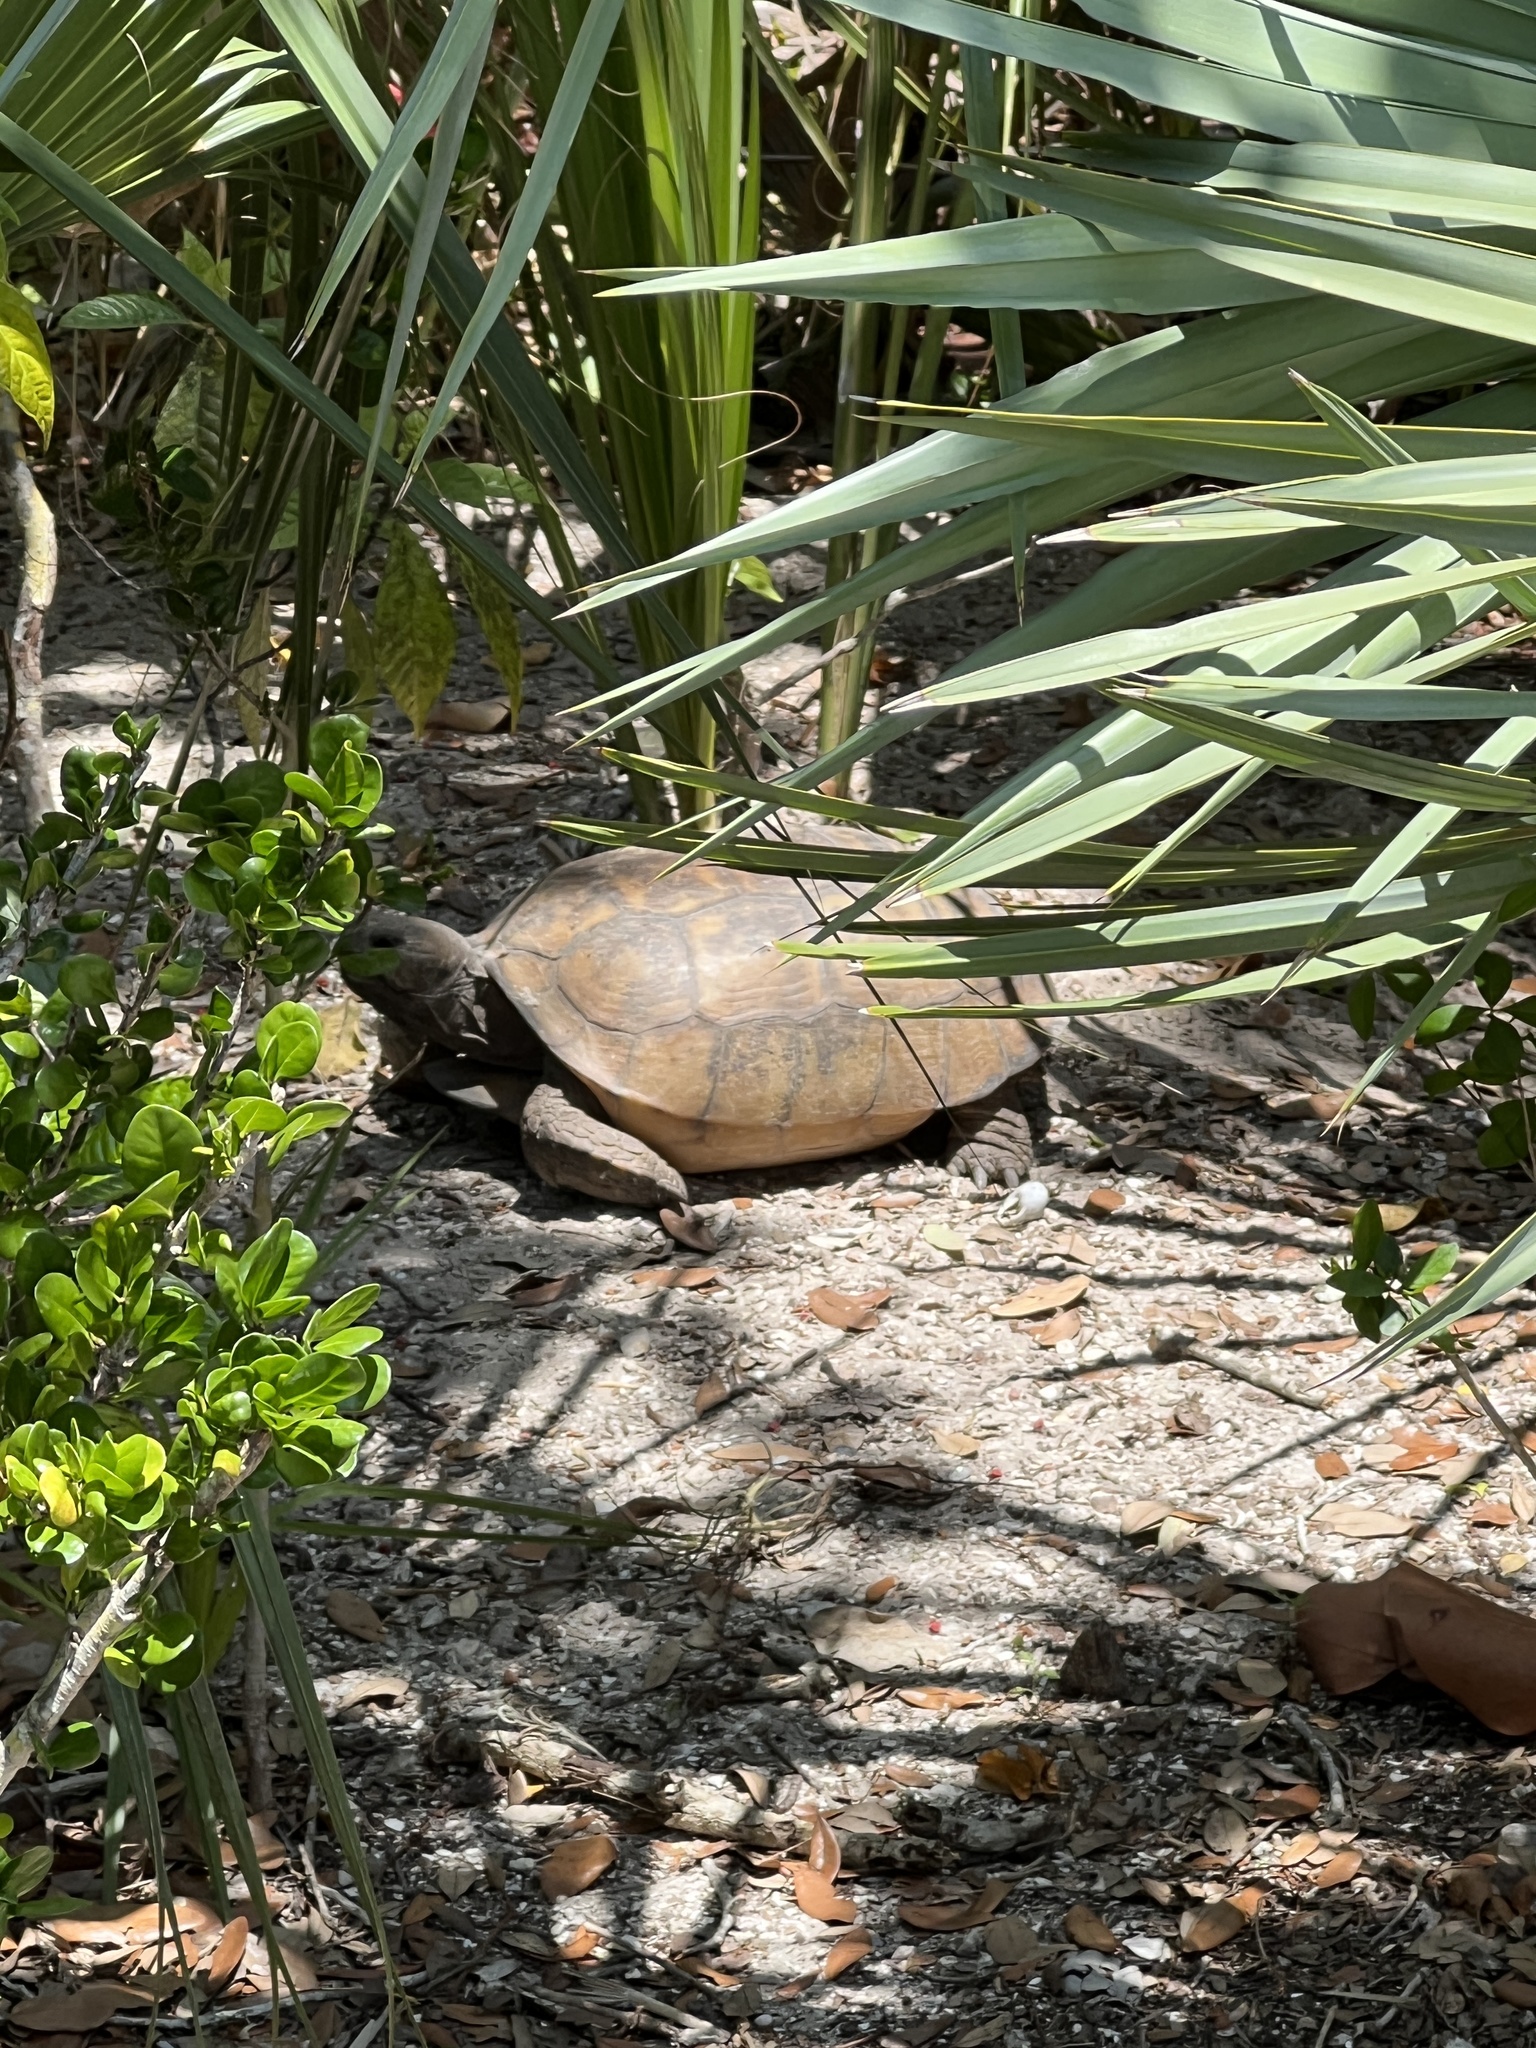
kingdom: Animalia
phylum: Chordata
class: Testudines
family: Testudinidae
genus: Gopherus
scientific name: Gopherus polyphemus
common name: Florida gopher tortoise
